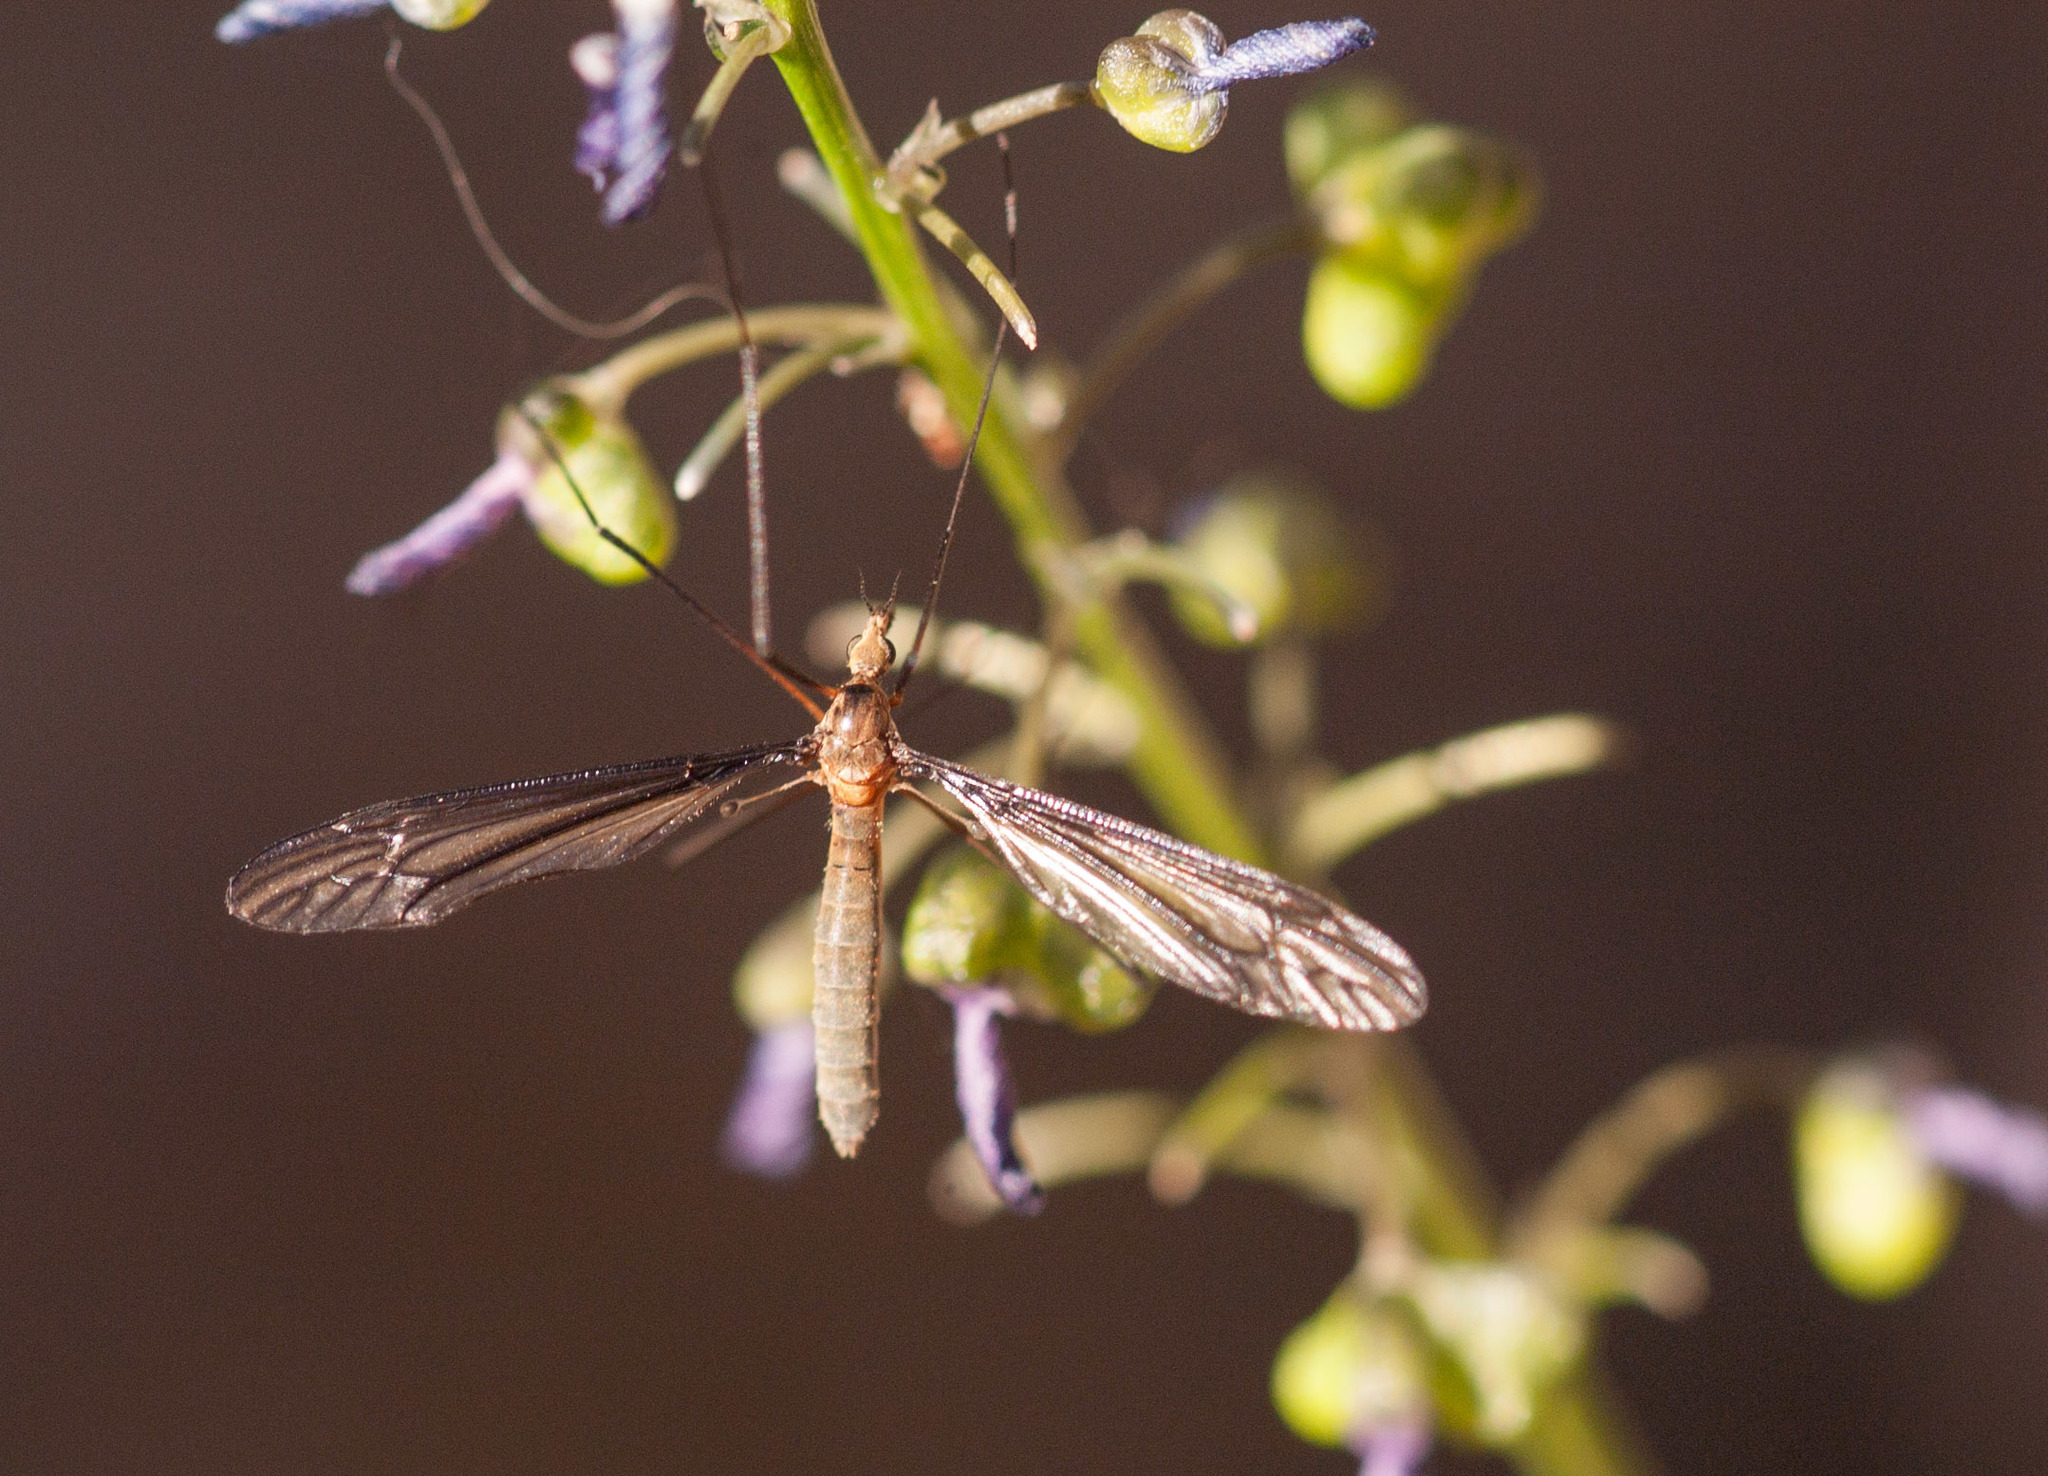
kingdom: Animalia
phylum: Arthropoda
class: Insecta
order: Diptera
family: Tipulidae
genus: Leptotarsus
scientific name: Leptotarsus humilis
